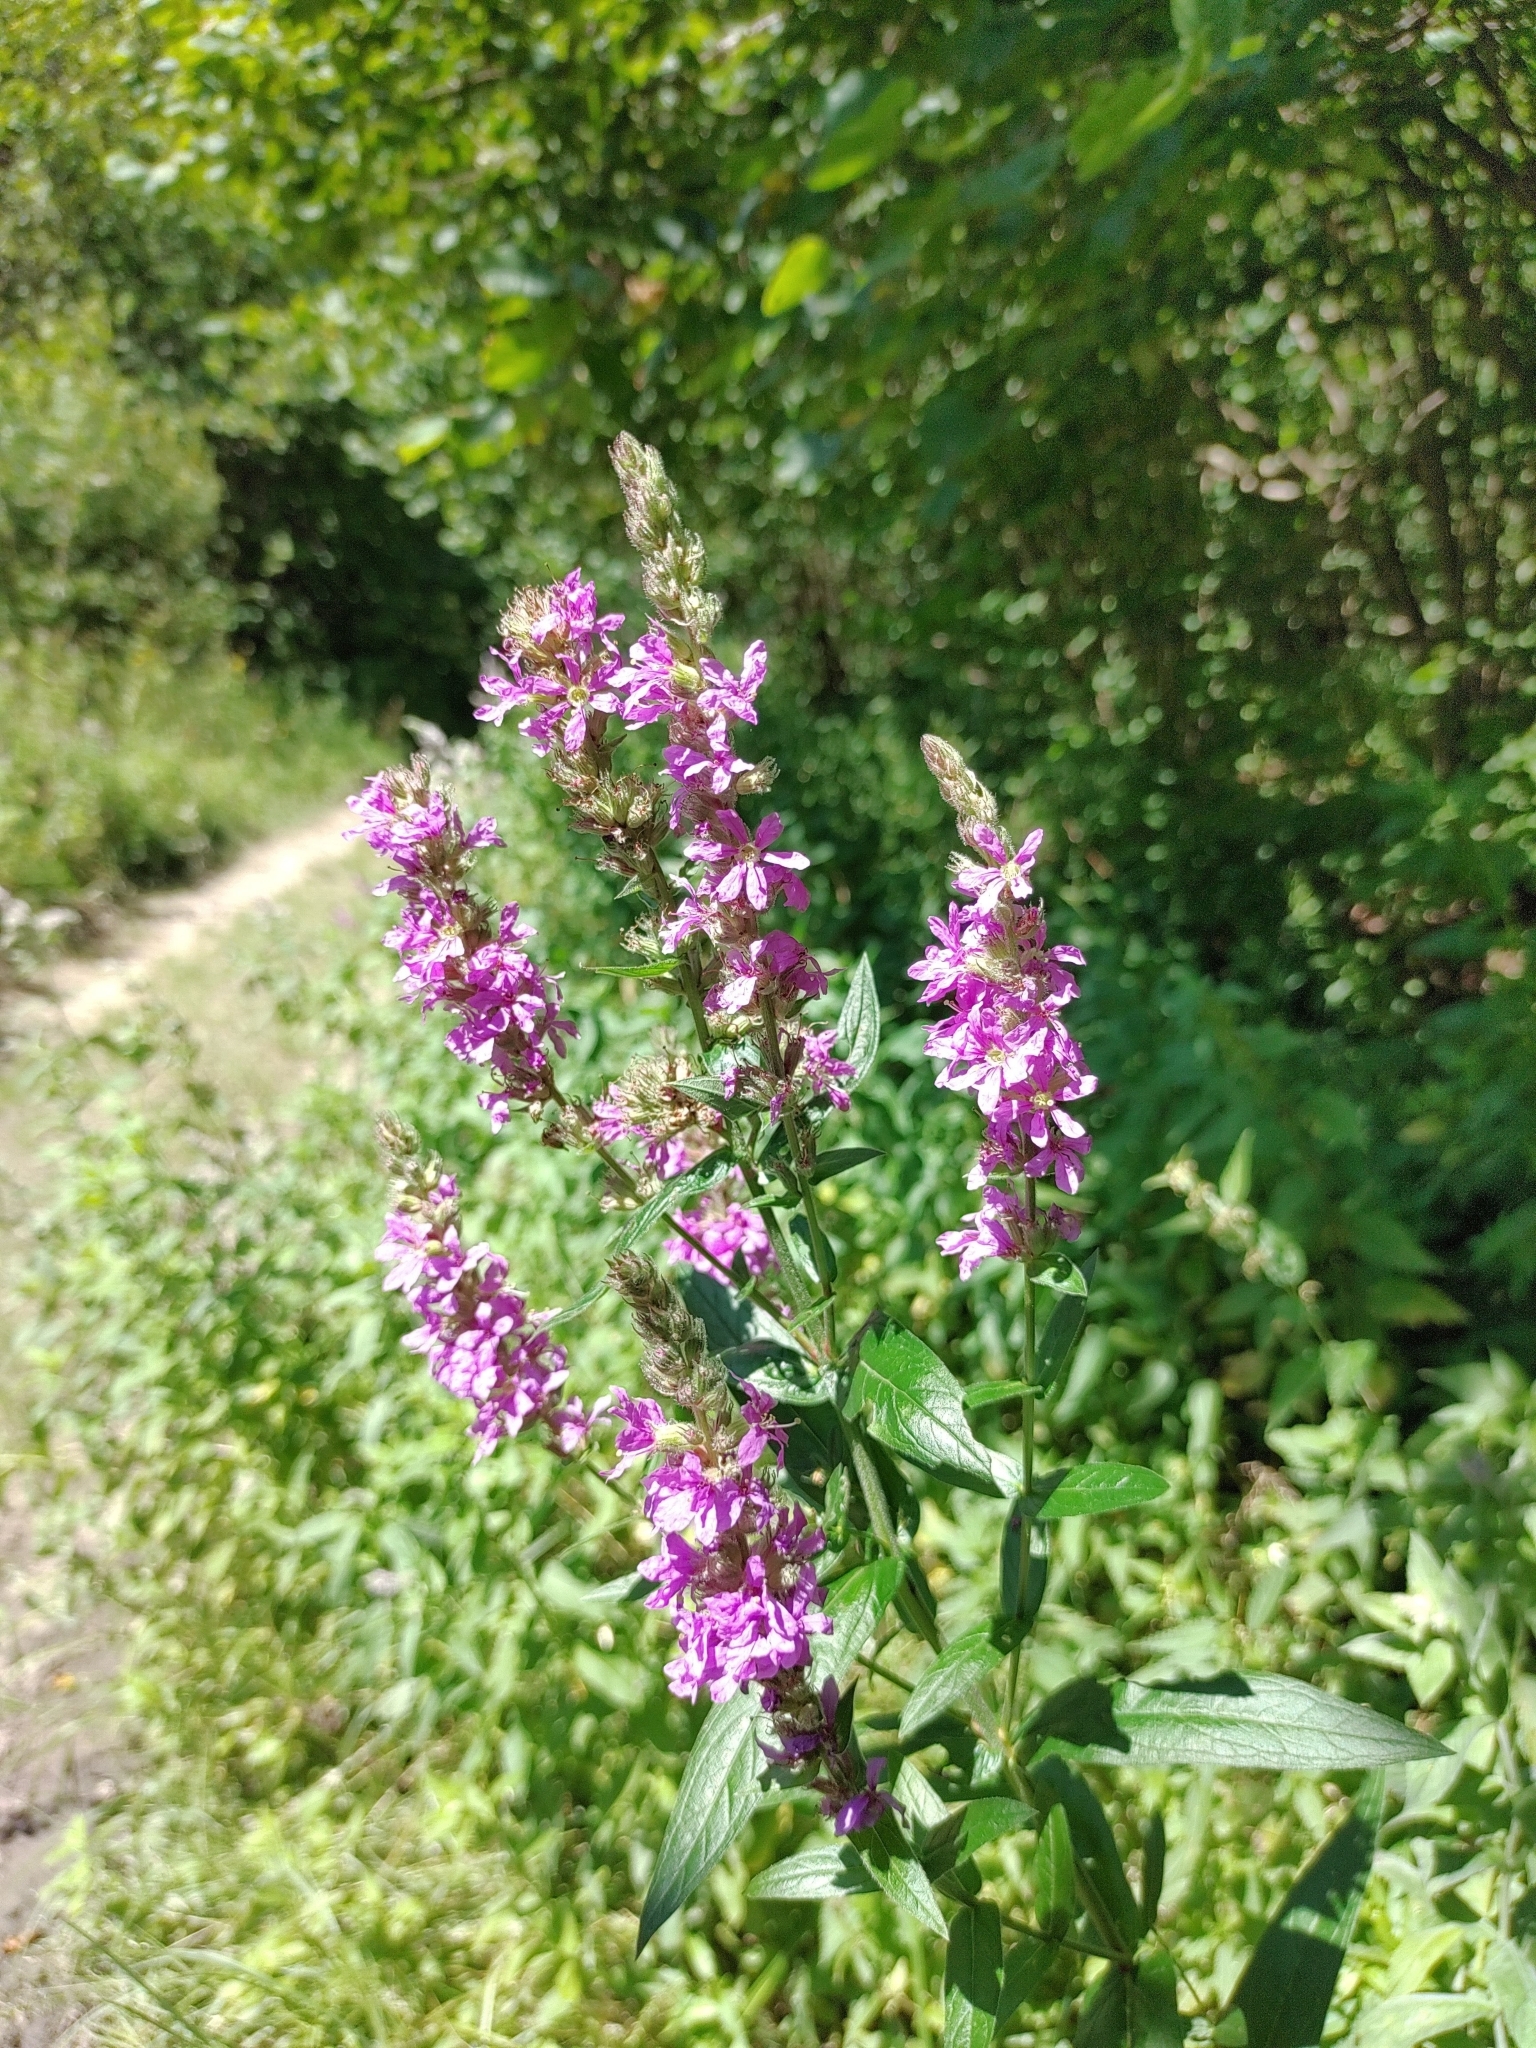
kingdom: Plantae
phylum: Tracheophyta
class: Magnoliopsida
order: Myrtales
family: Lythraceae
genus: Lythrum
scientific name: Lythrum salicaria
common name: Purple loosestrife
